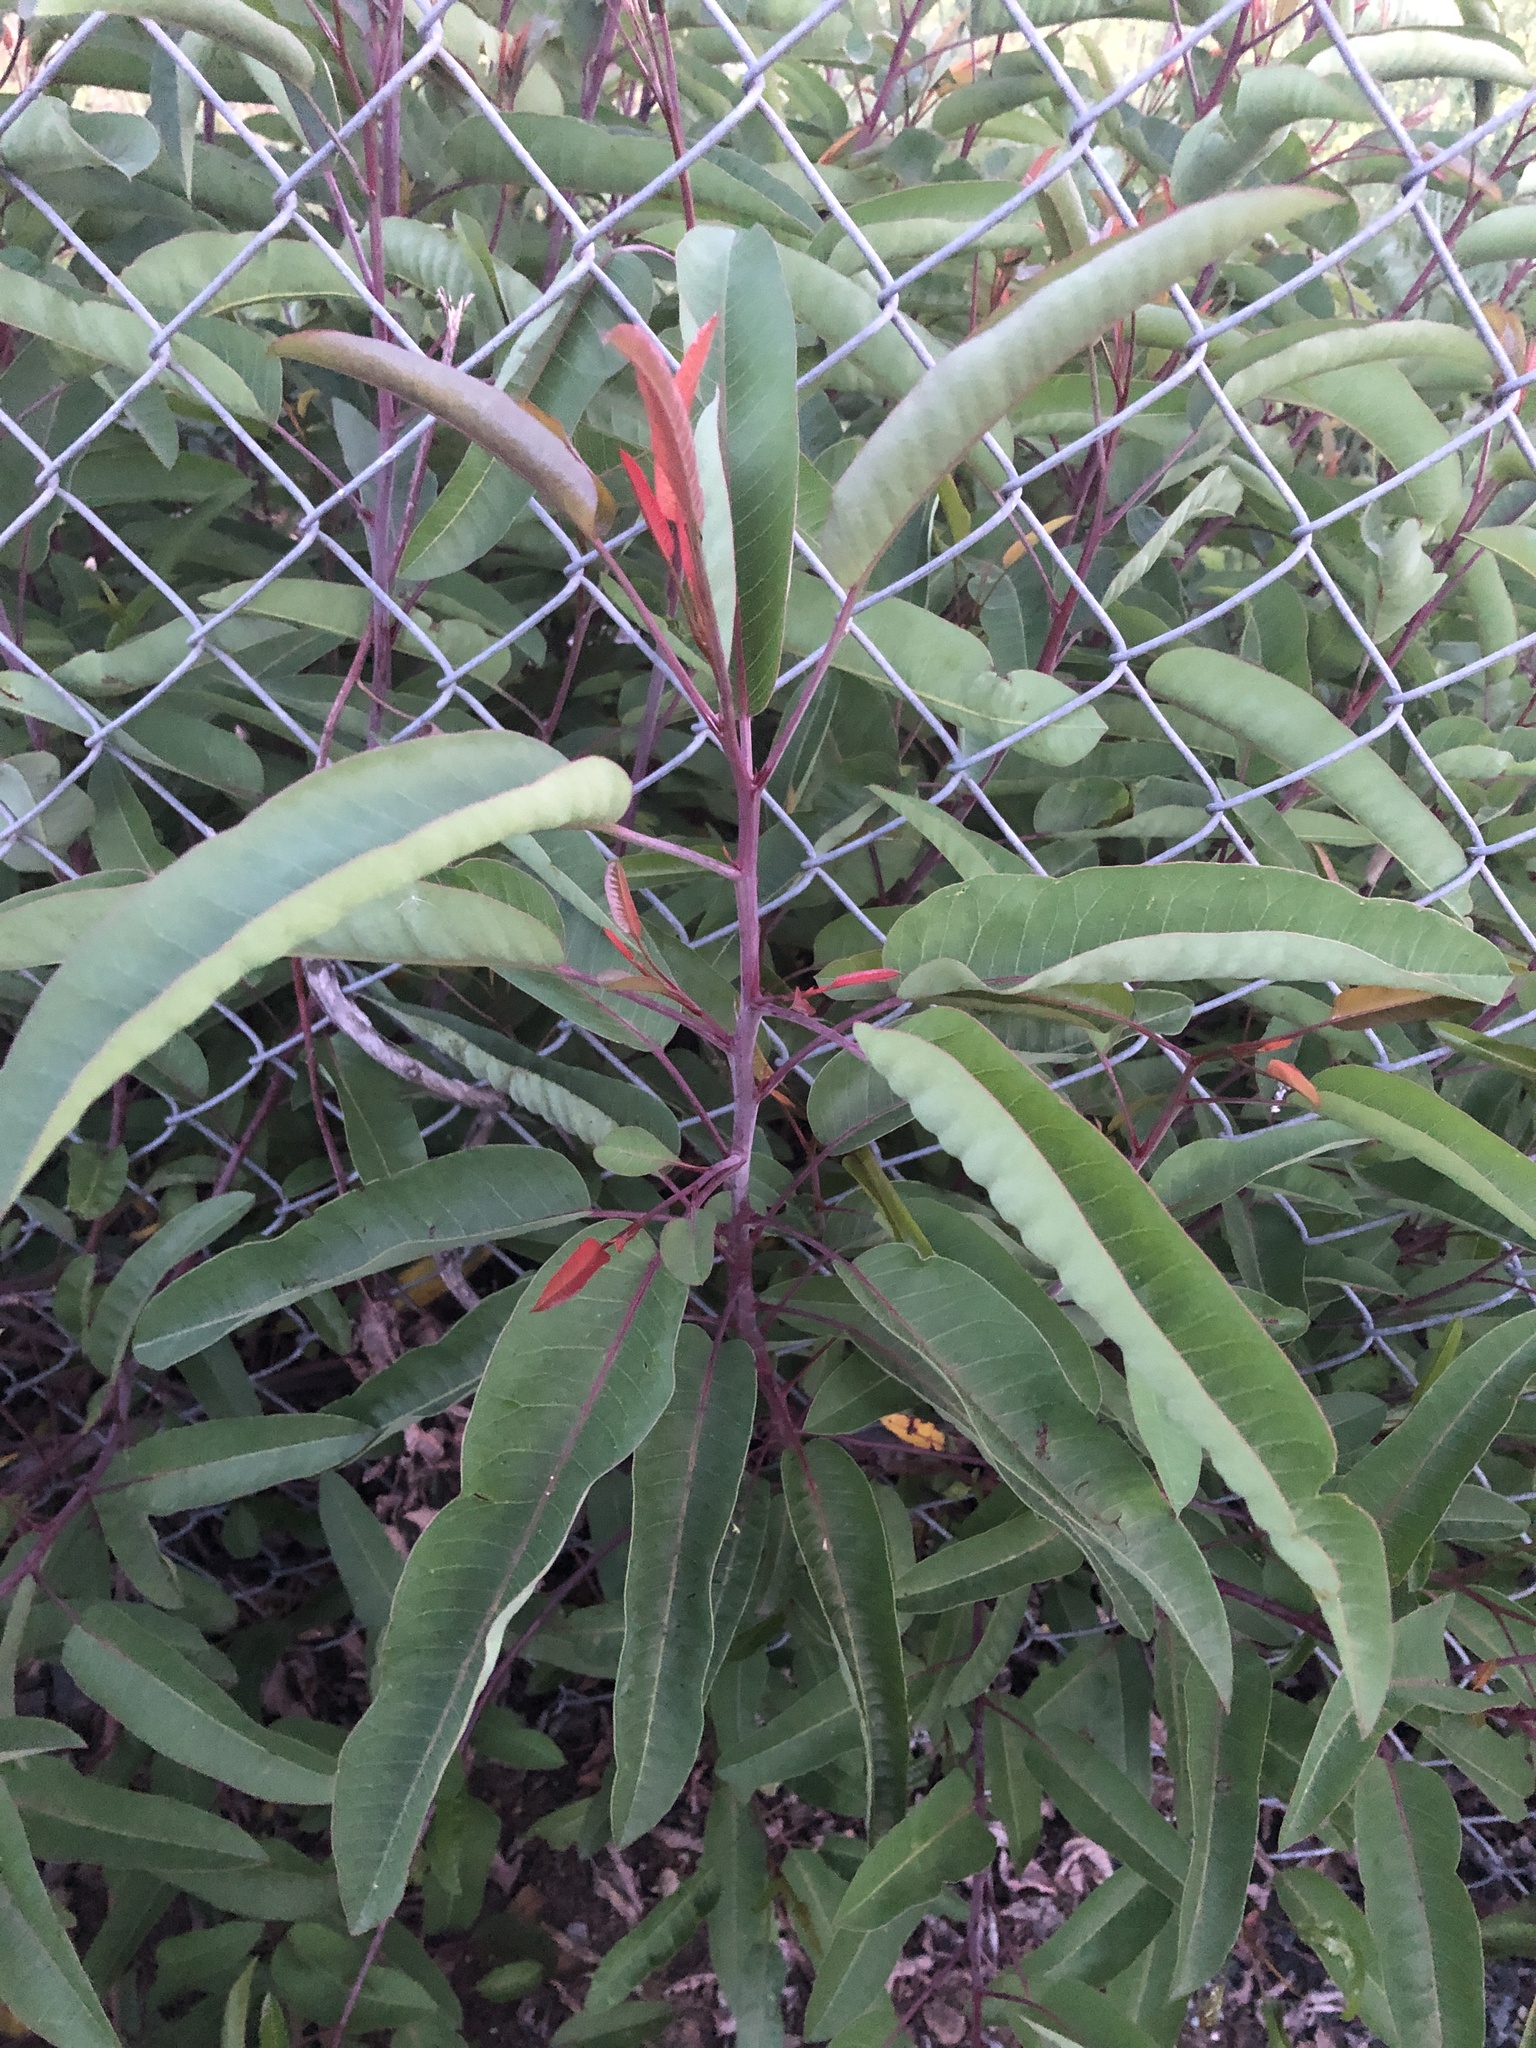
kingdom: Plantae
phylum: Tracheophyta
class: Magnoliopsida
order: Sapindales
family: Anacardiaceae
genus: Malosma
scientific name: Malosma laurina
